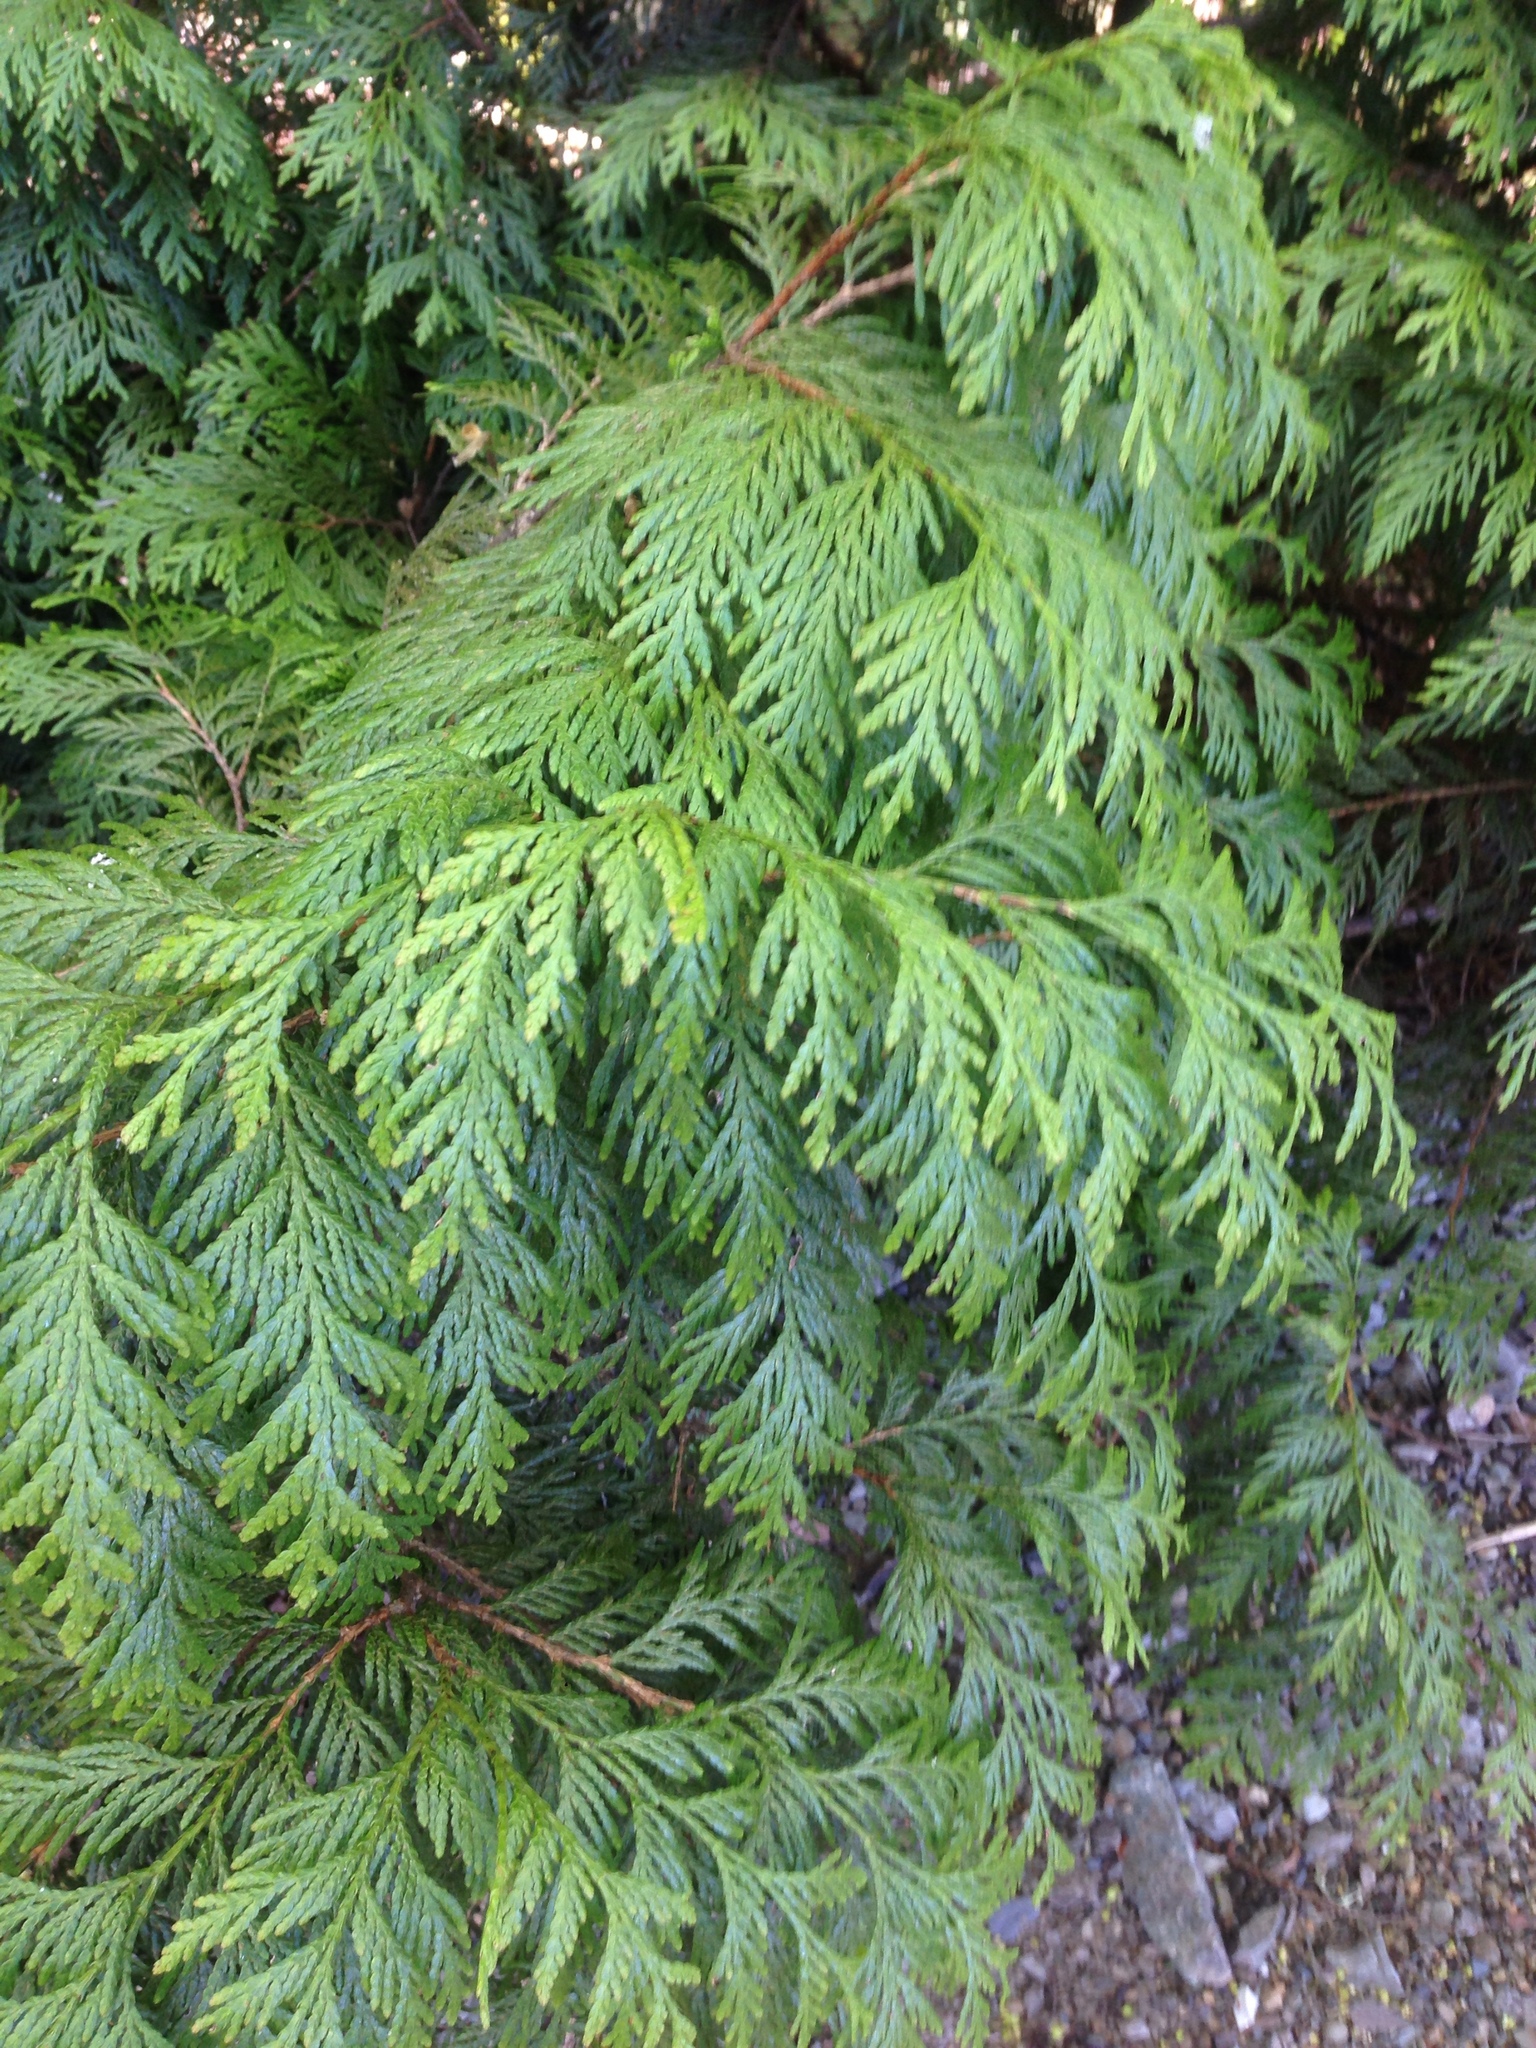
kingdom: Plantae
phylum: Tracheophyta
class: Pinopsida
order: Pinales
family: Cupressaceae
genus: Thuja
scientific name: Thuja plicata
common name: Western red-cedar
